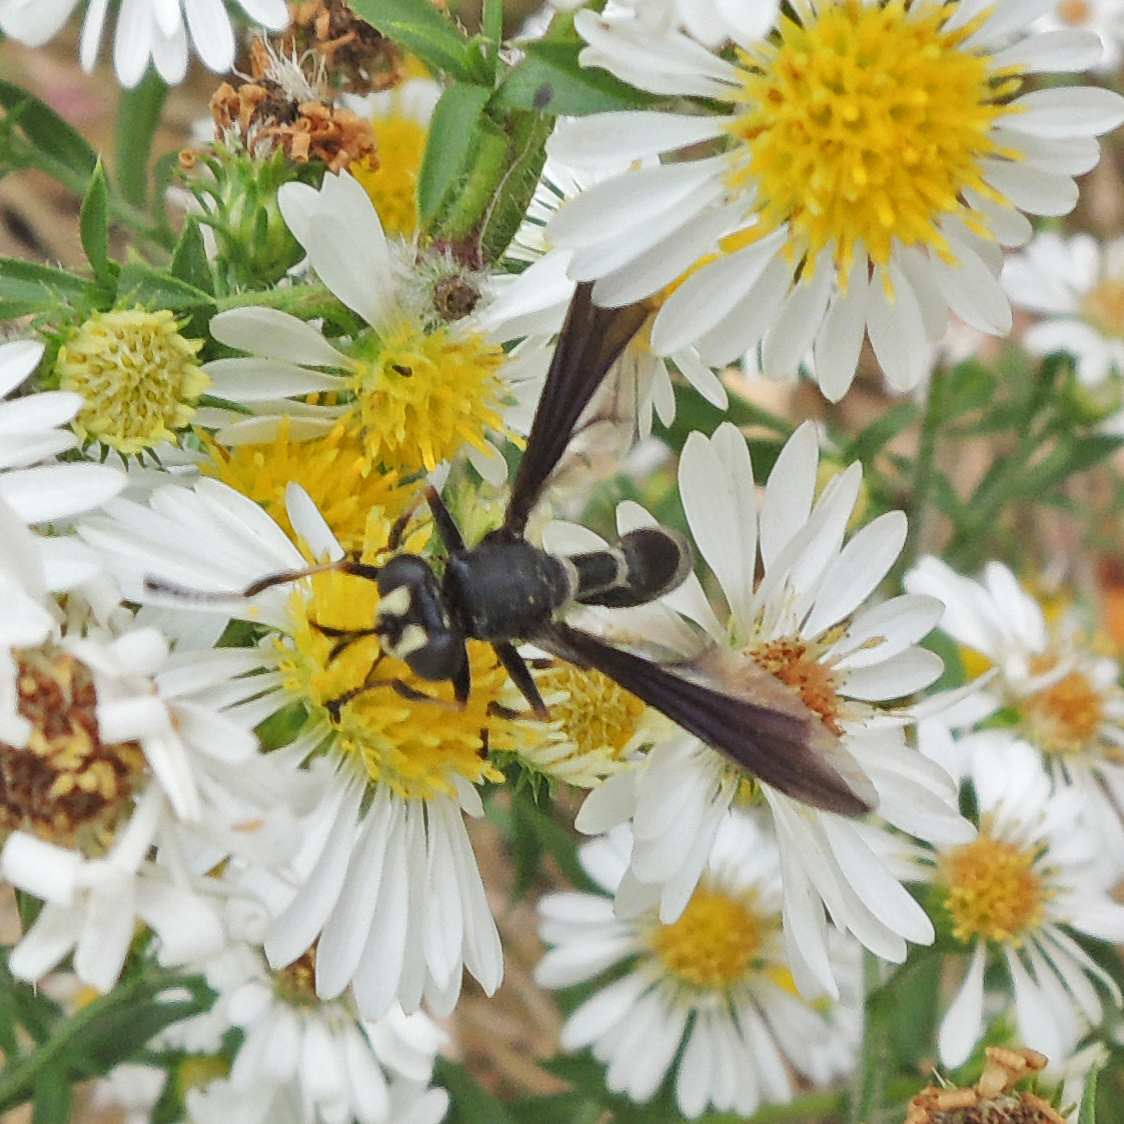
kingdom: Animalia
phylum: Arthropoda
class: Insecta
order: Diptera
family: Conopidae
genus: Physocephala
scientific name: Physocephala tibialis
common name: Common eastern physocephala
